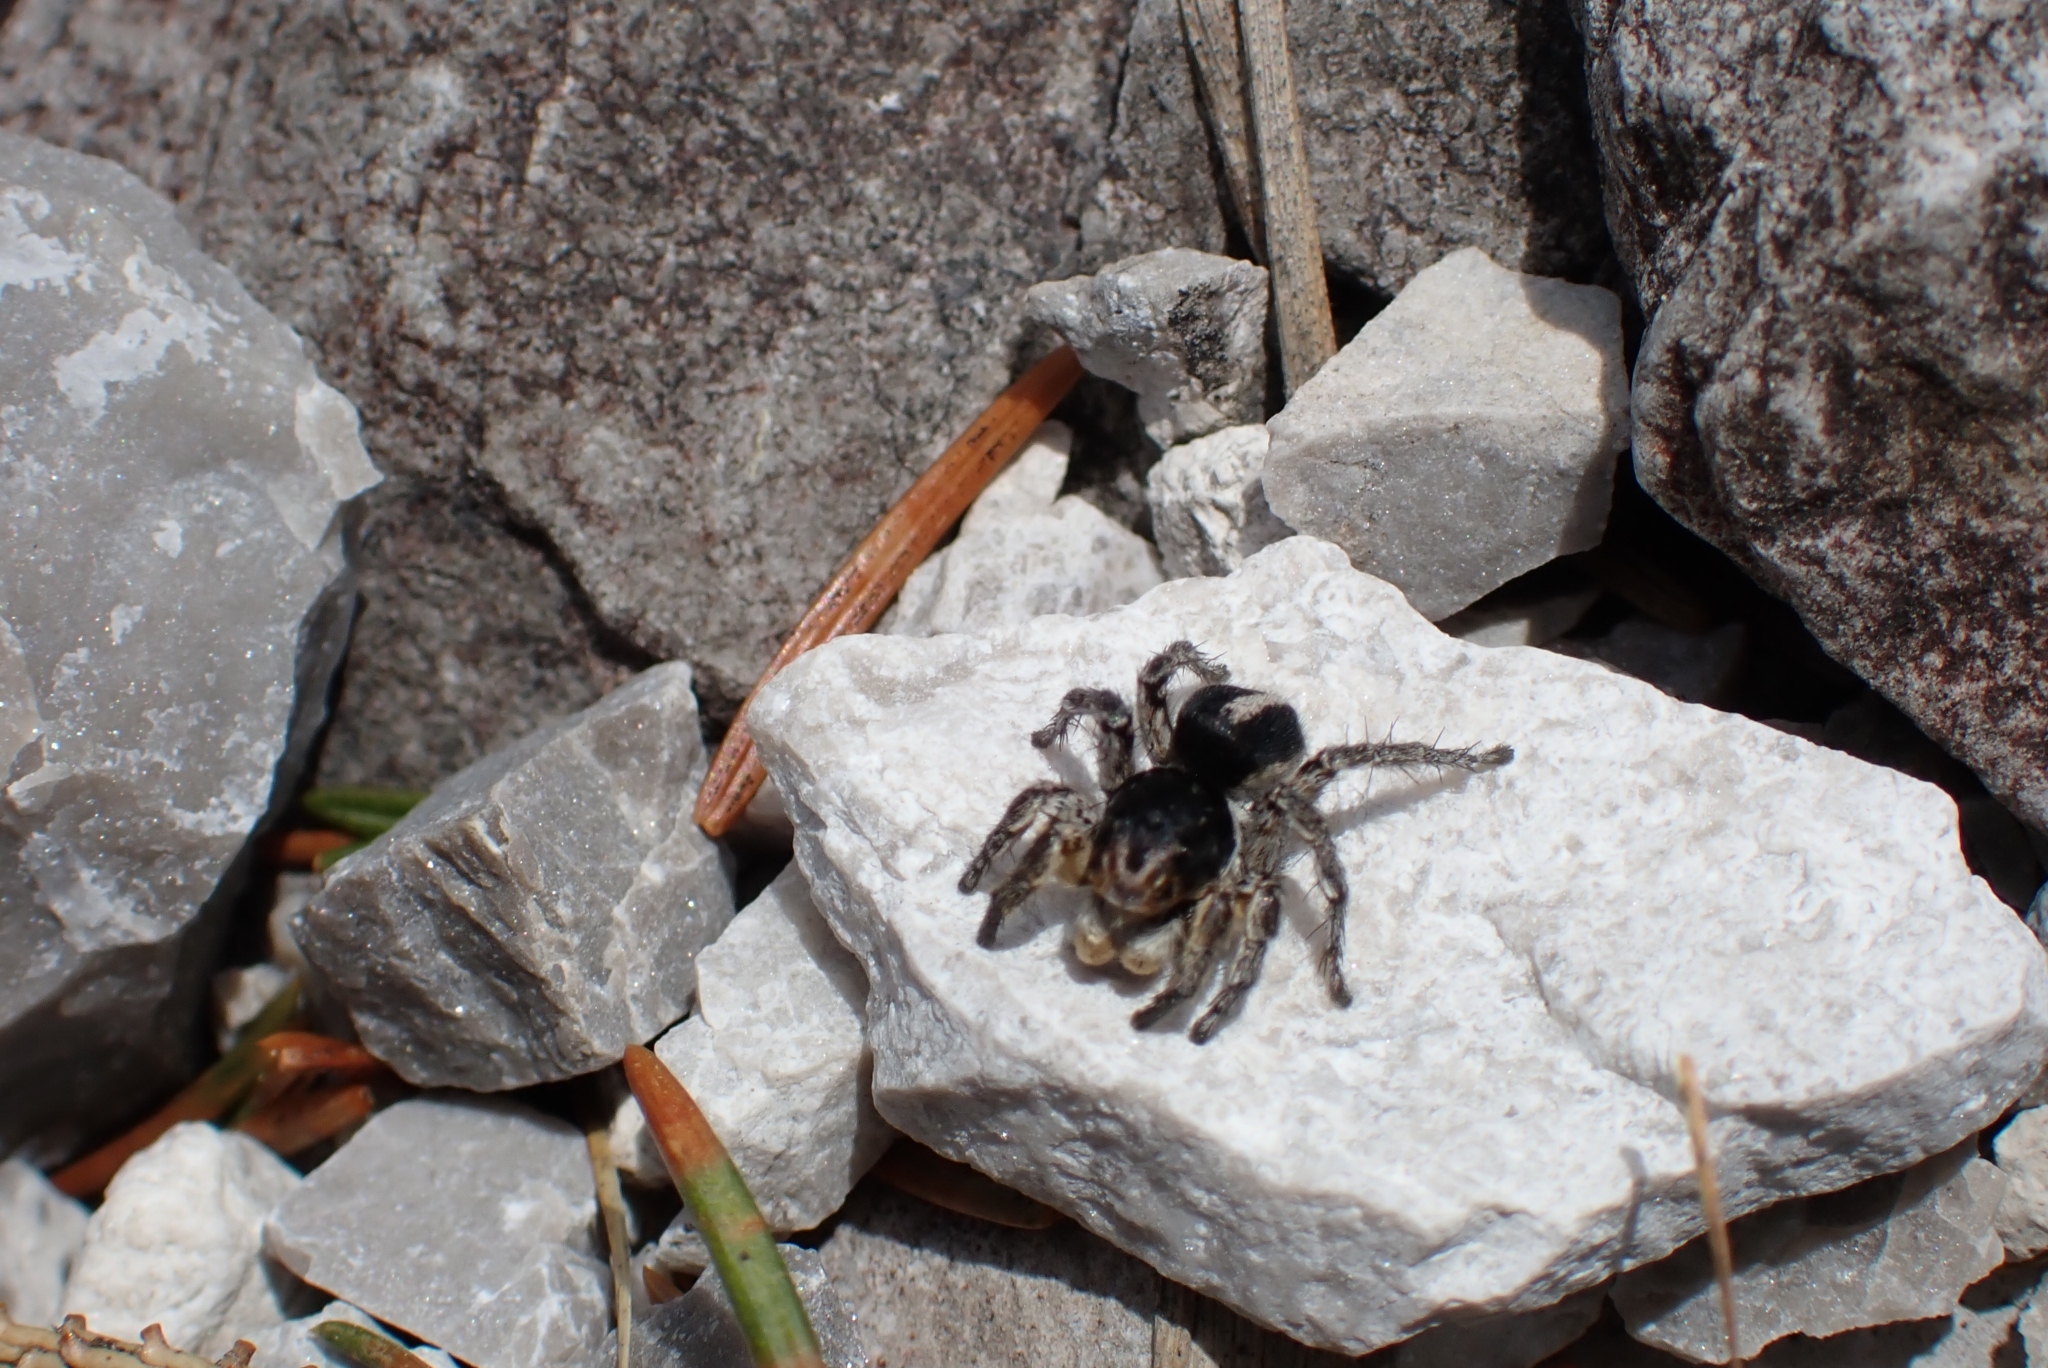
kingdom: Animalia
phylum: Arthropoda
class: Arachnida
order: Araneae
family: Salticidae
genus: Aelurillus
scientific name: Aelurillus v-insignitus
